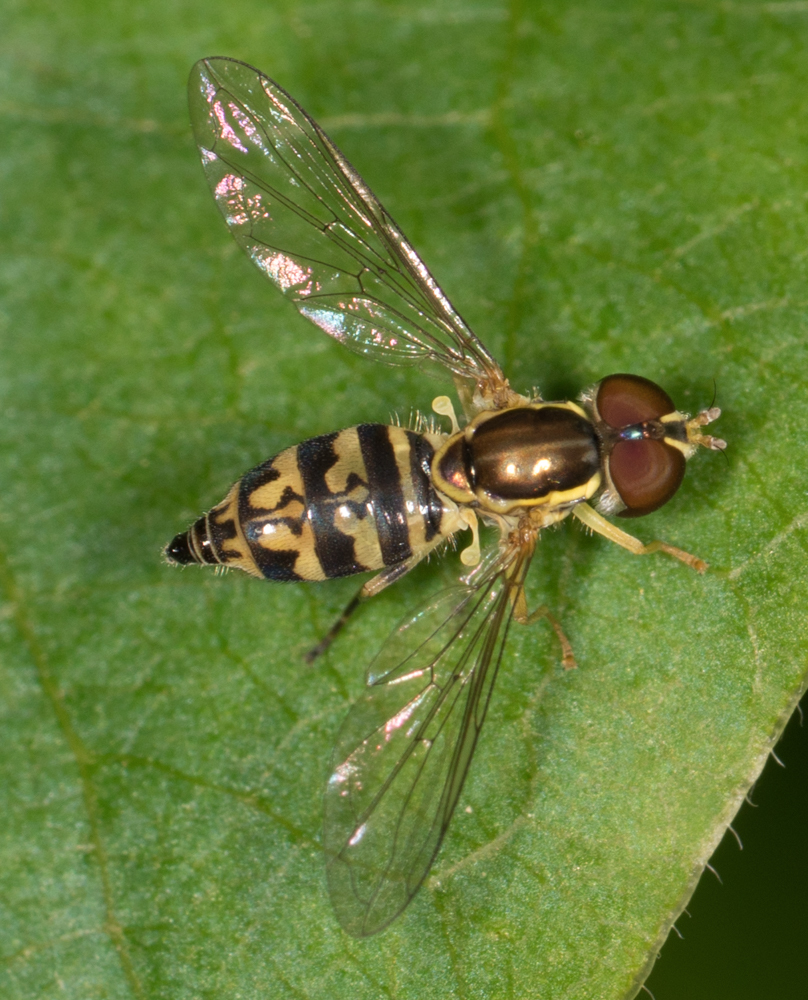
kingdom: Animalia
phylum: Arthropoda
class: Insecta
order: Diptera
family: Syrphidae
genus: Toxomerus
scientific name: Toxomerus geminatus
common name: Eastern calligrapher
